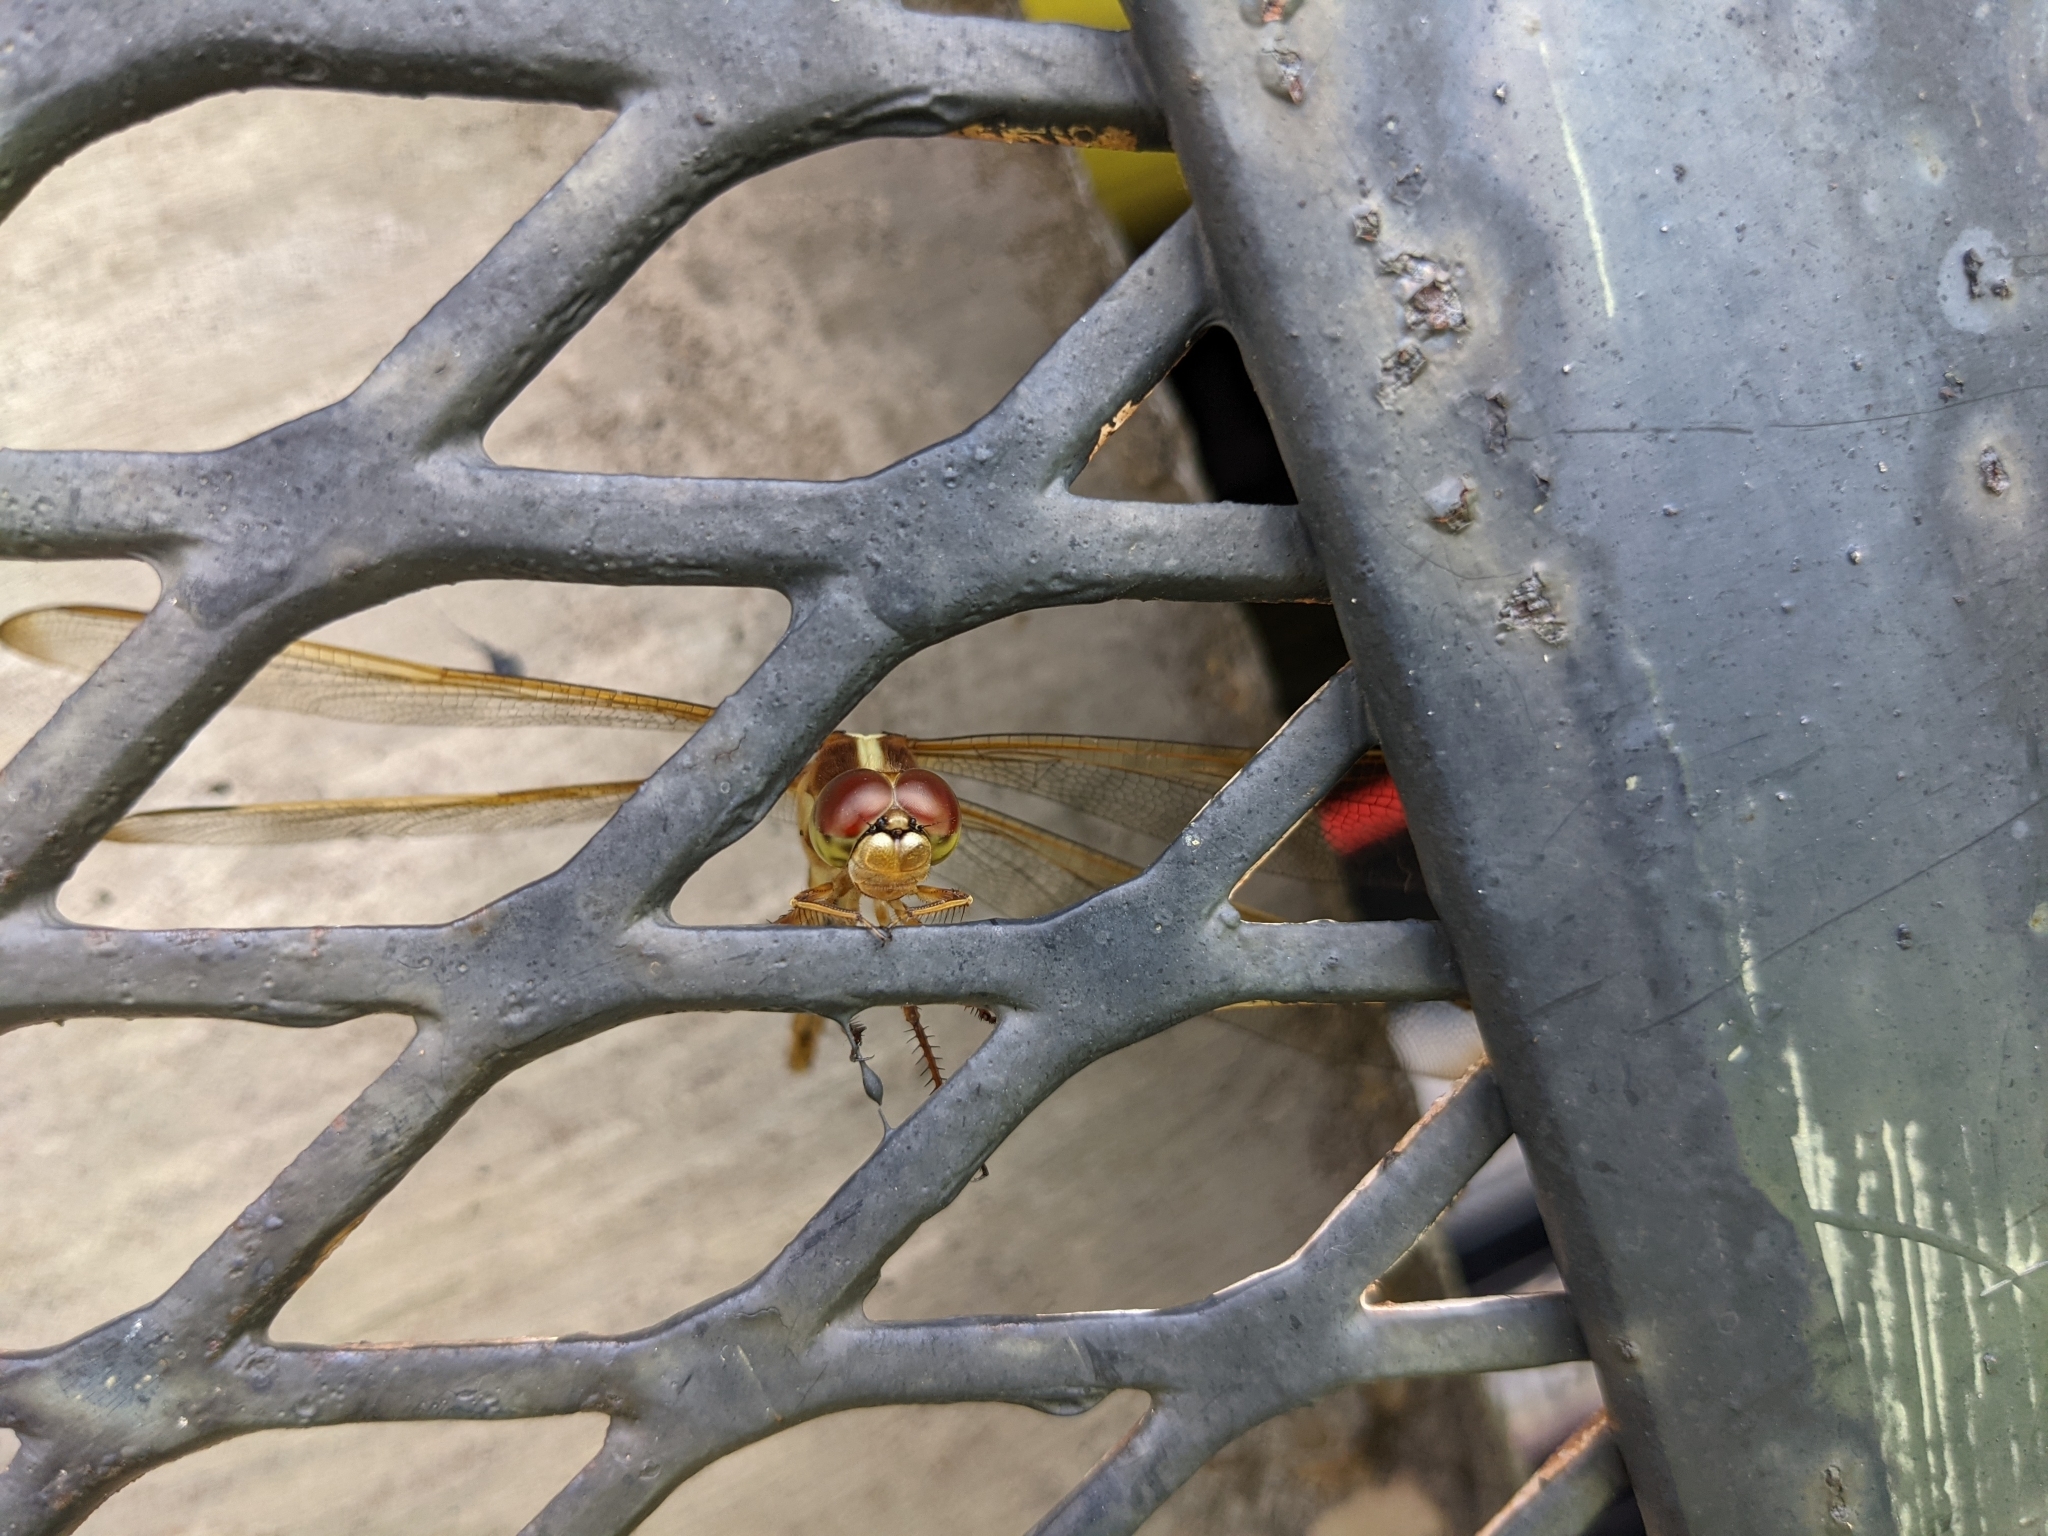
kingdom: Animalia
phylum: Arthropoda
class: Insecta
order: Odonata
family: Libellulidae
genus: Libellula
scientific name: Libellula needhami
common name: Needham's skimmer
